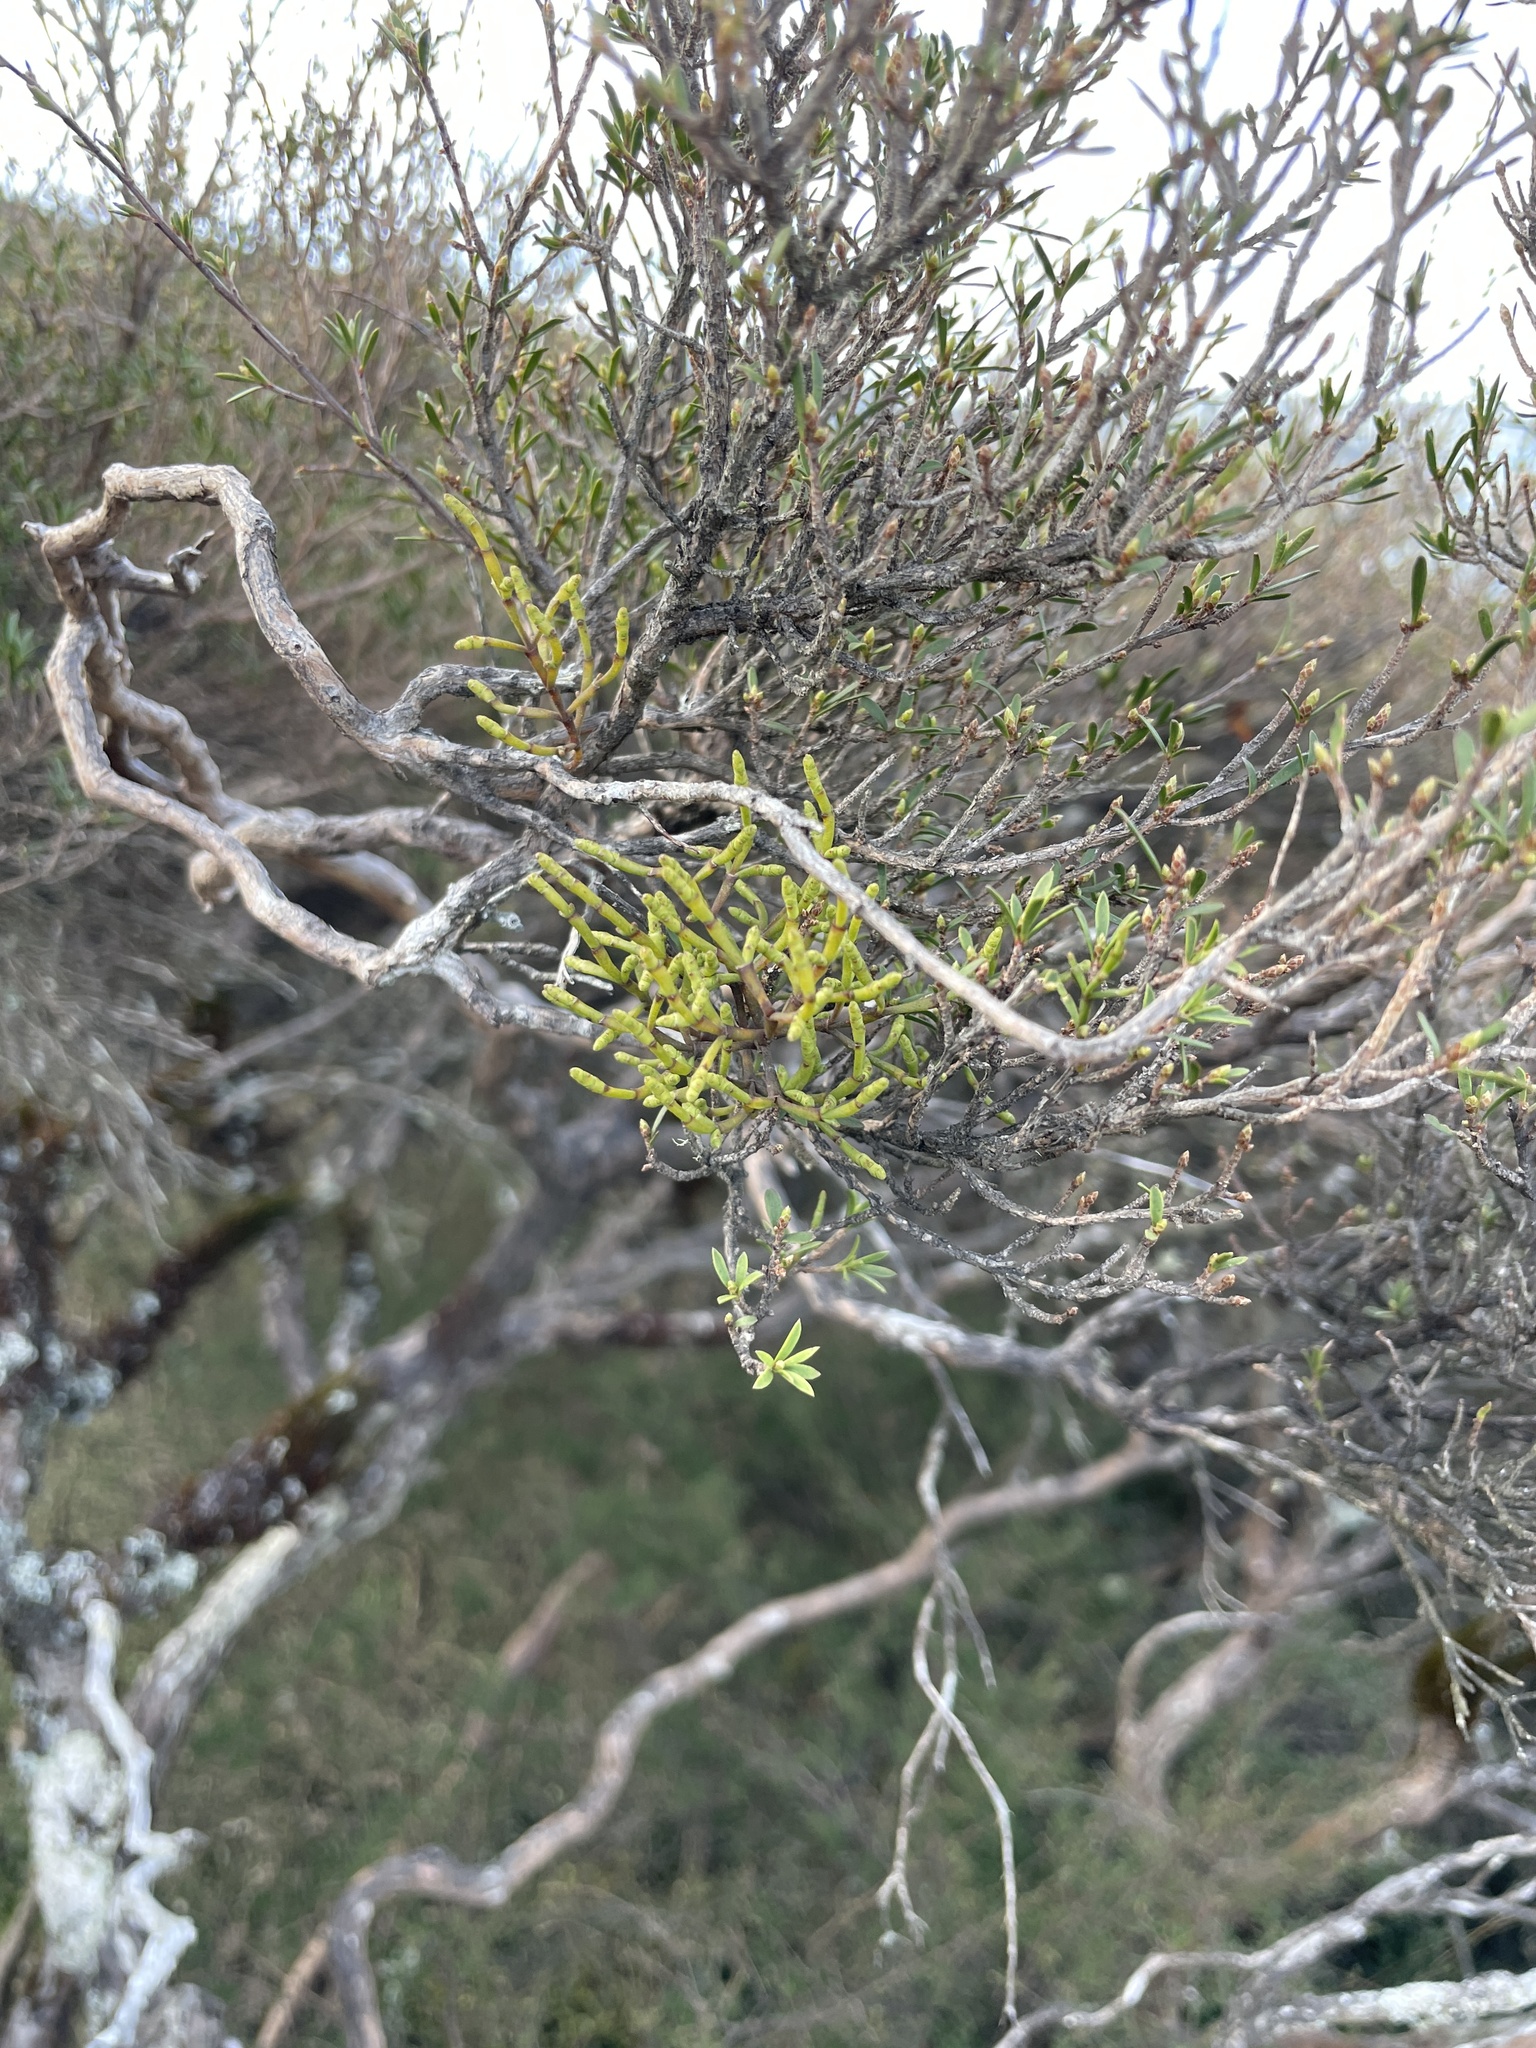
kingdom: Plantae
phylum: Tracheophyta
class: Magnoliopsida
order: Santalales
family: Viscaceae
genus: Korthalsella
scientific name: Korthalsella salicornioides
